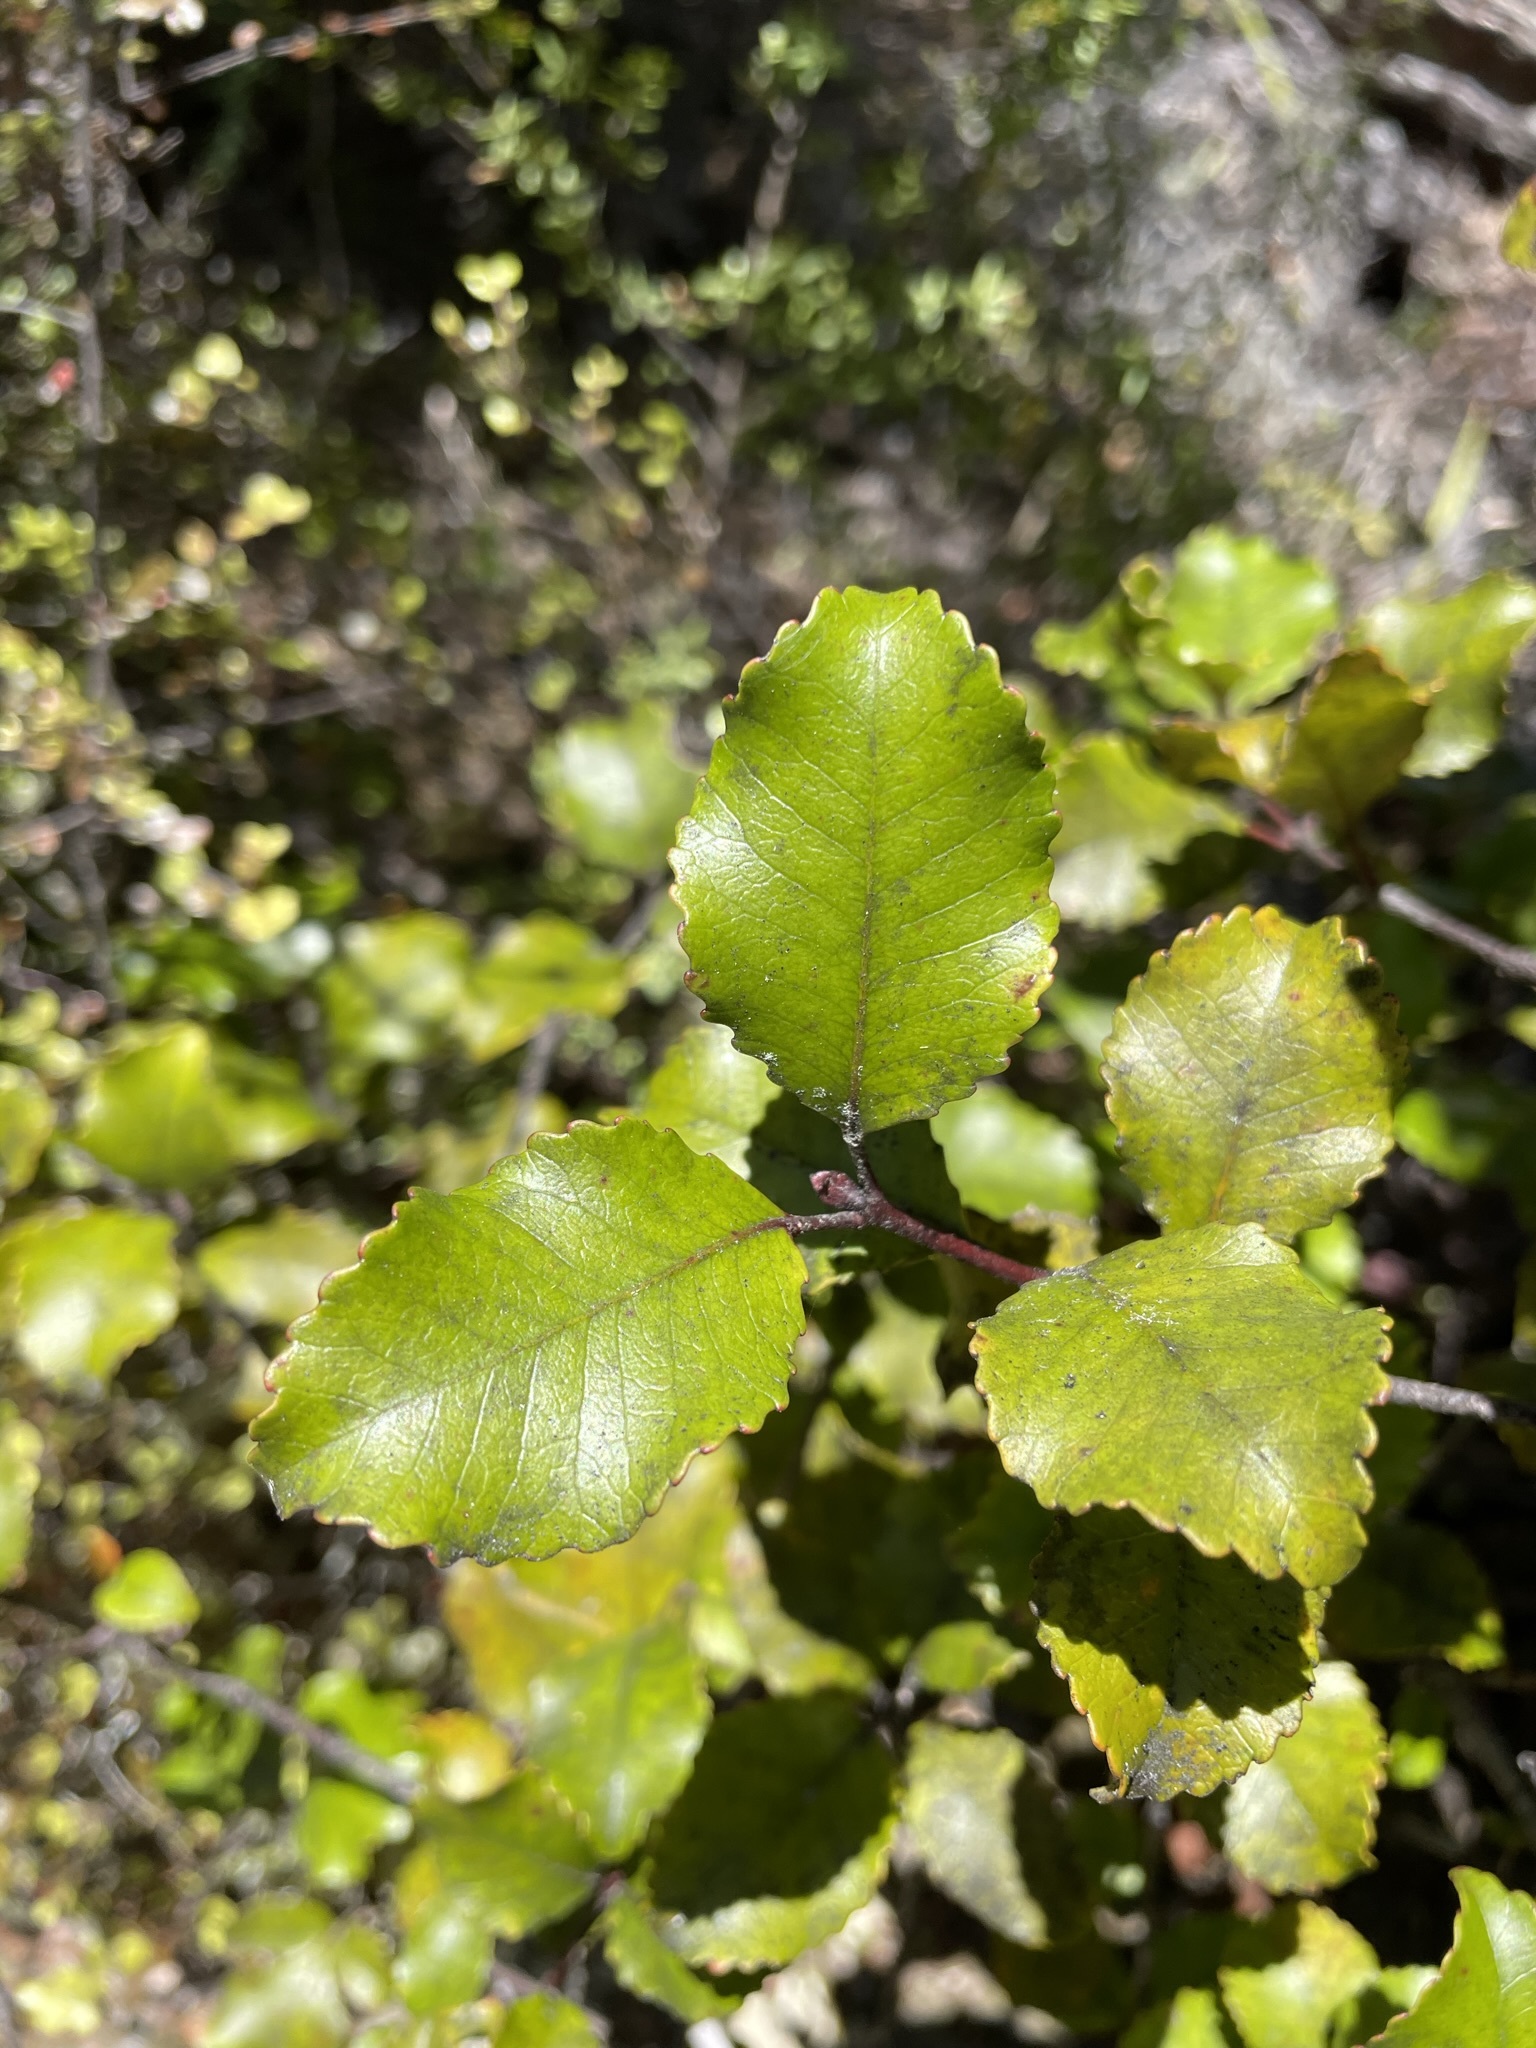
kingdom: Plantae
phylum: Tracheophyta
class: Magnoliopsida
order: Oxalidales
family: Cunoniaceae
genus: Pterophylla
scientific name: Pterophylla racemosa
